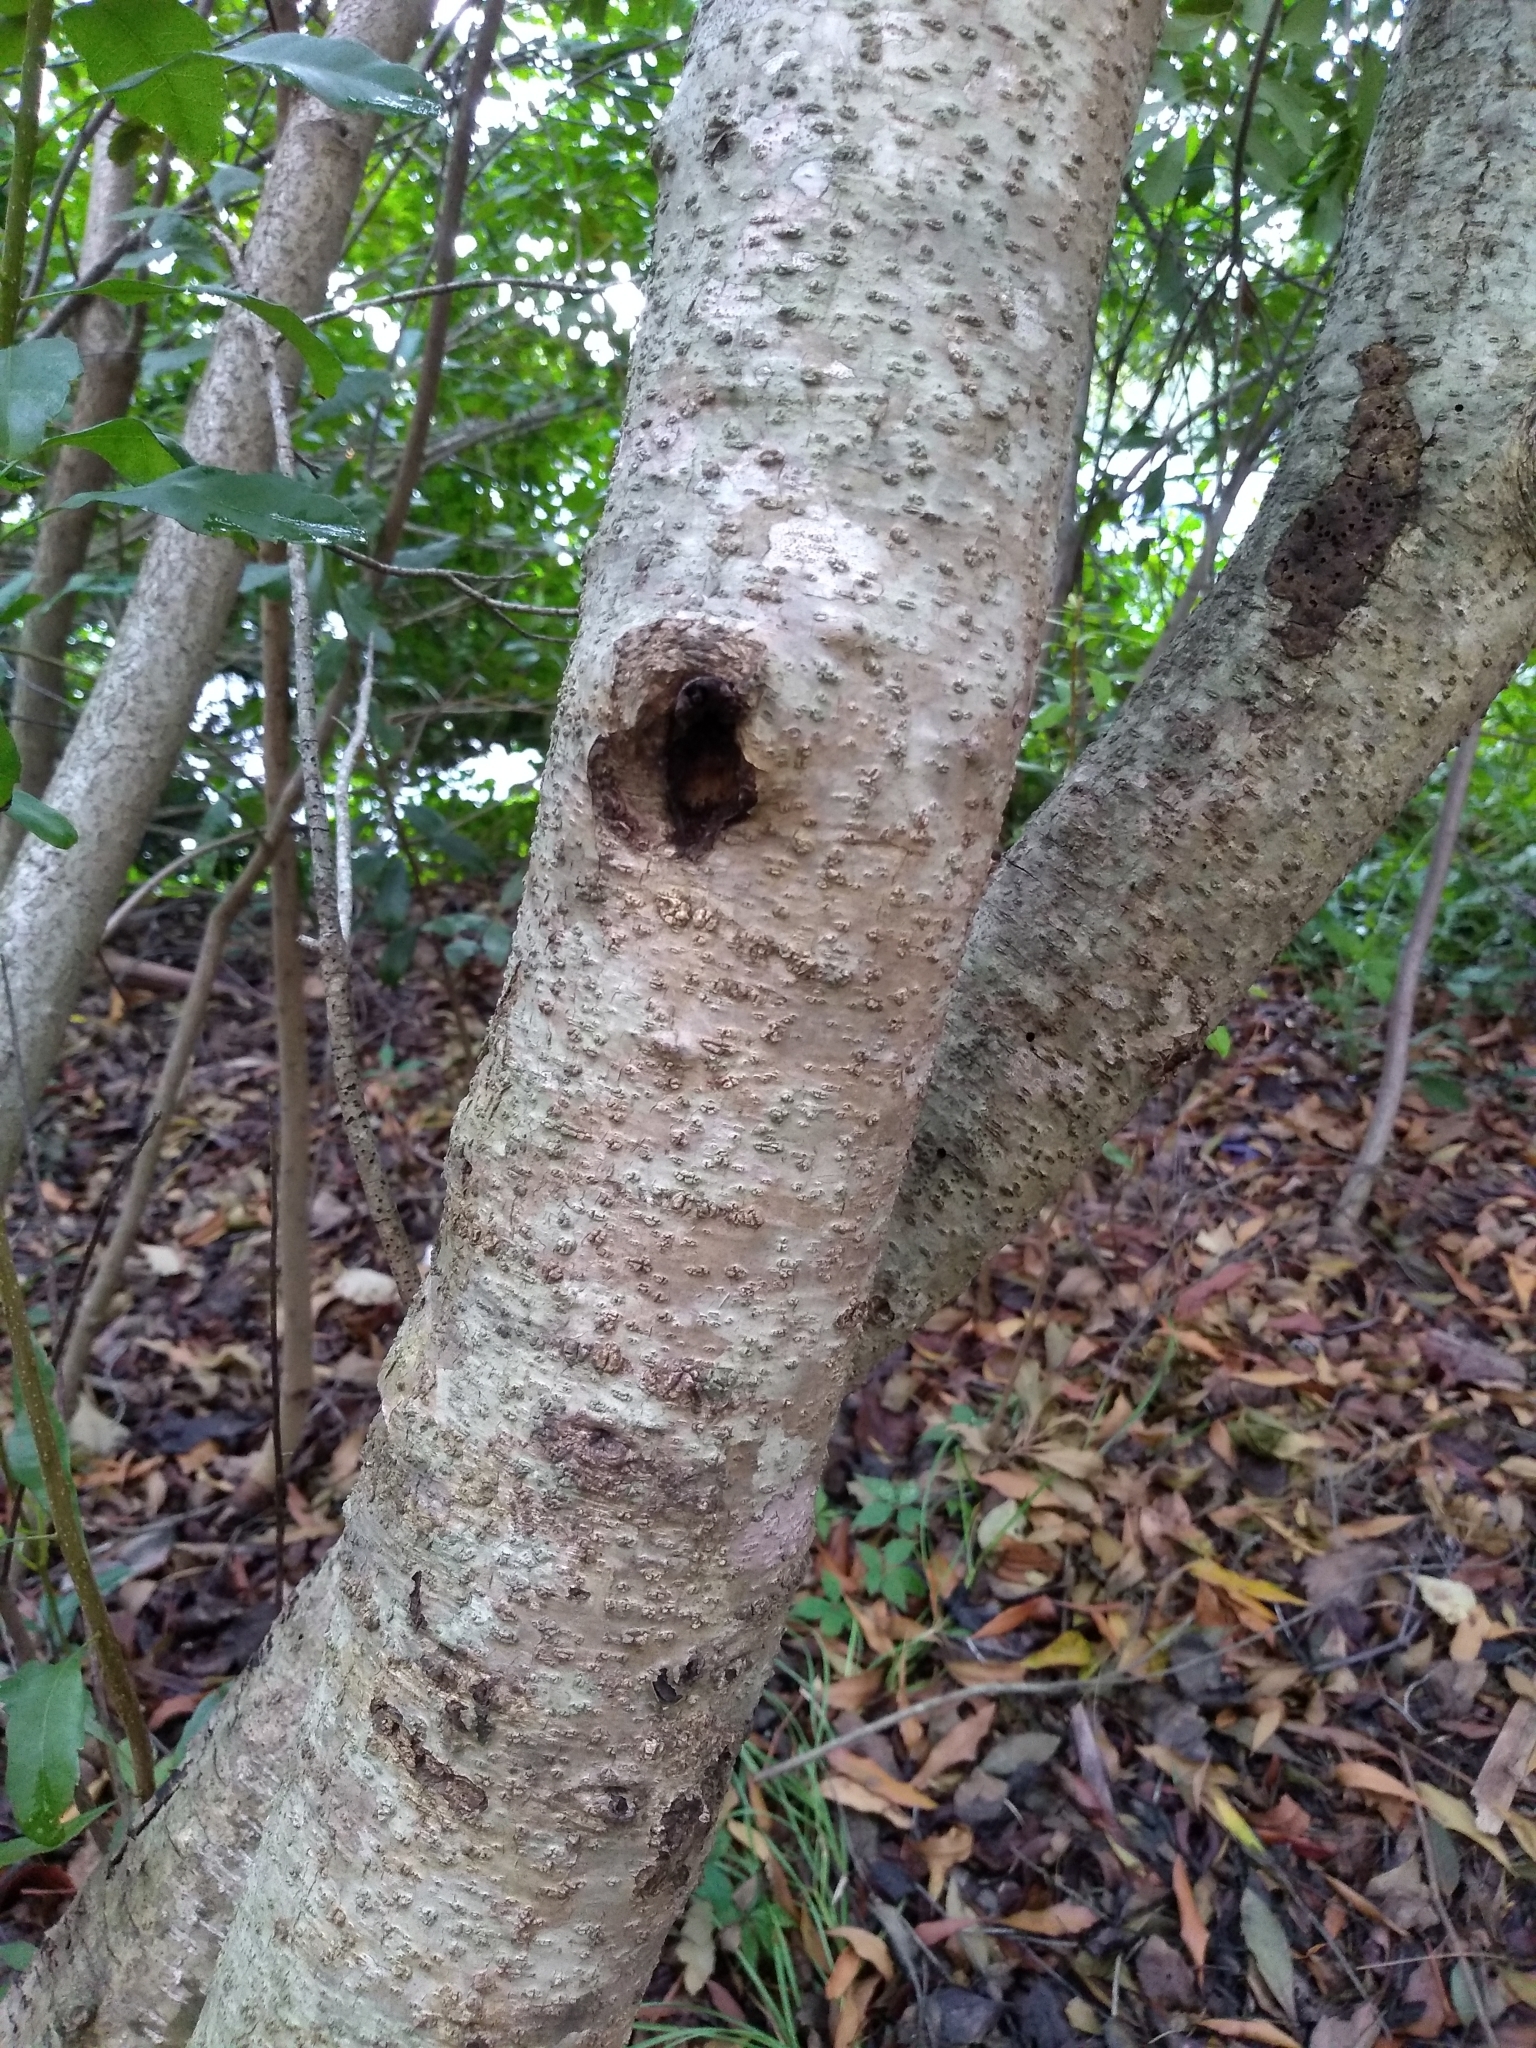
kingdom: Plantae
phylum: Tracheophyta
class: Magnoliopsida
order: Fagales
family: Myricaceae
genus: Morella
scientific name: Morella cerifera
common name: Wax myrtle
